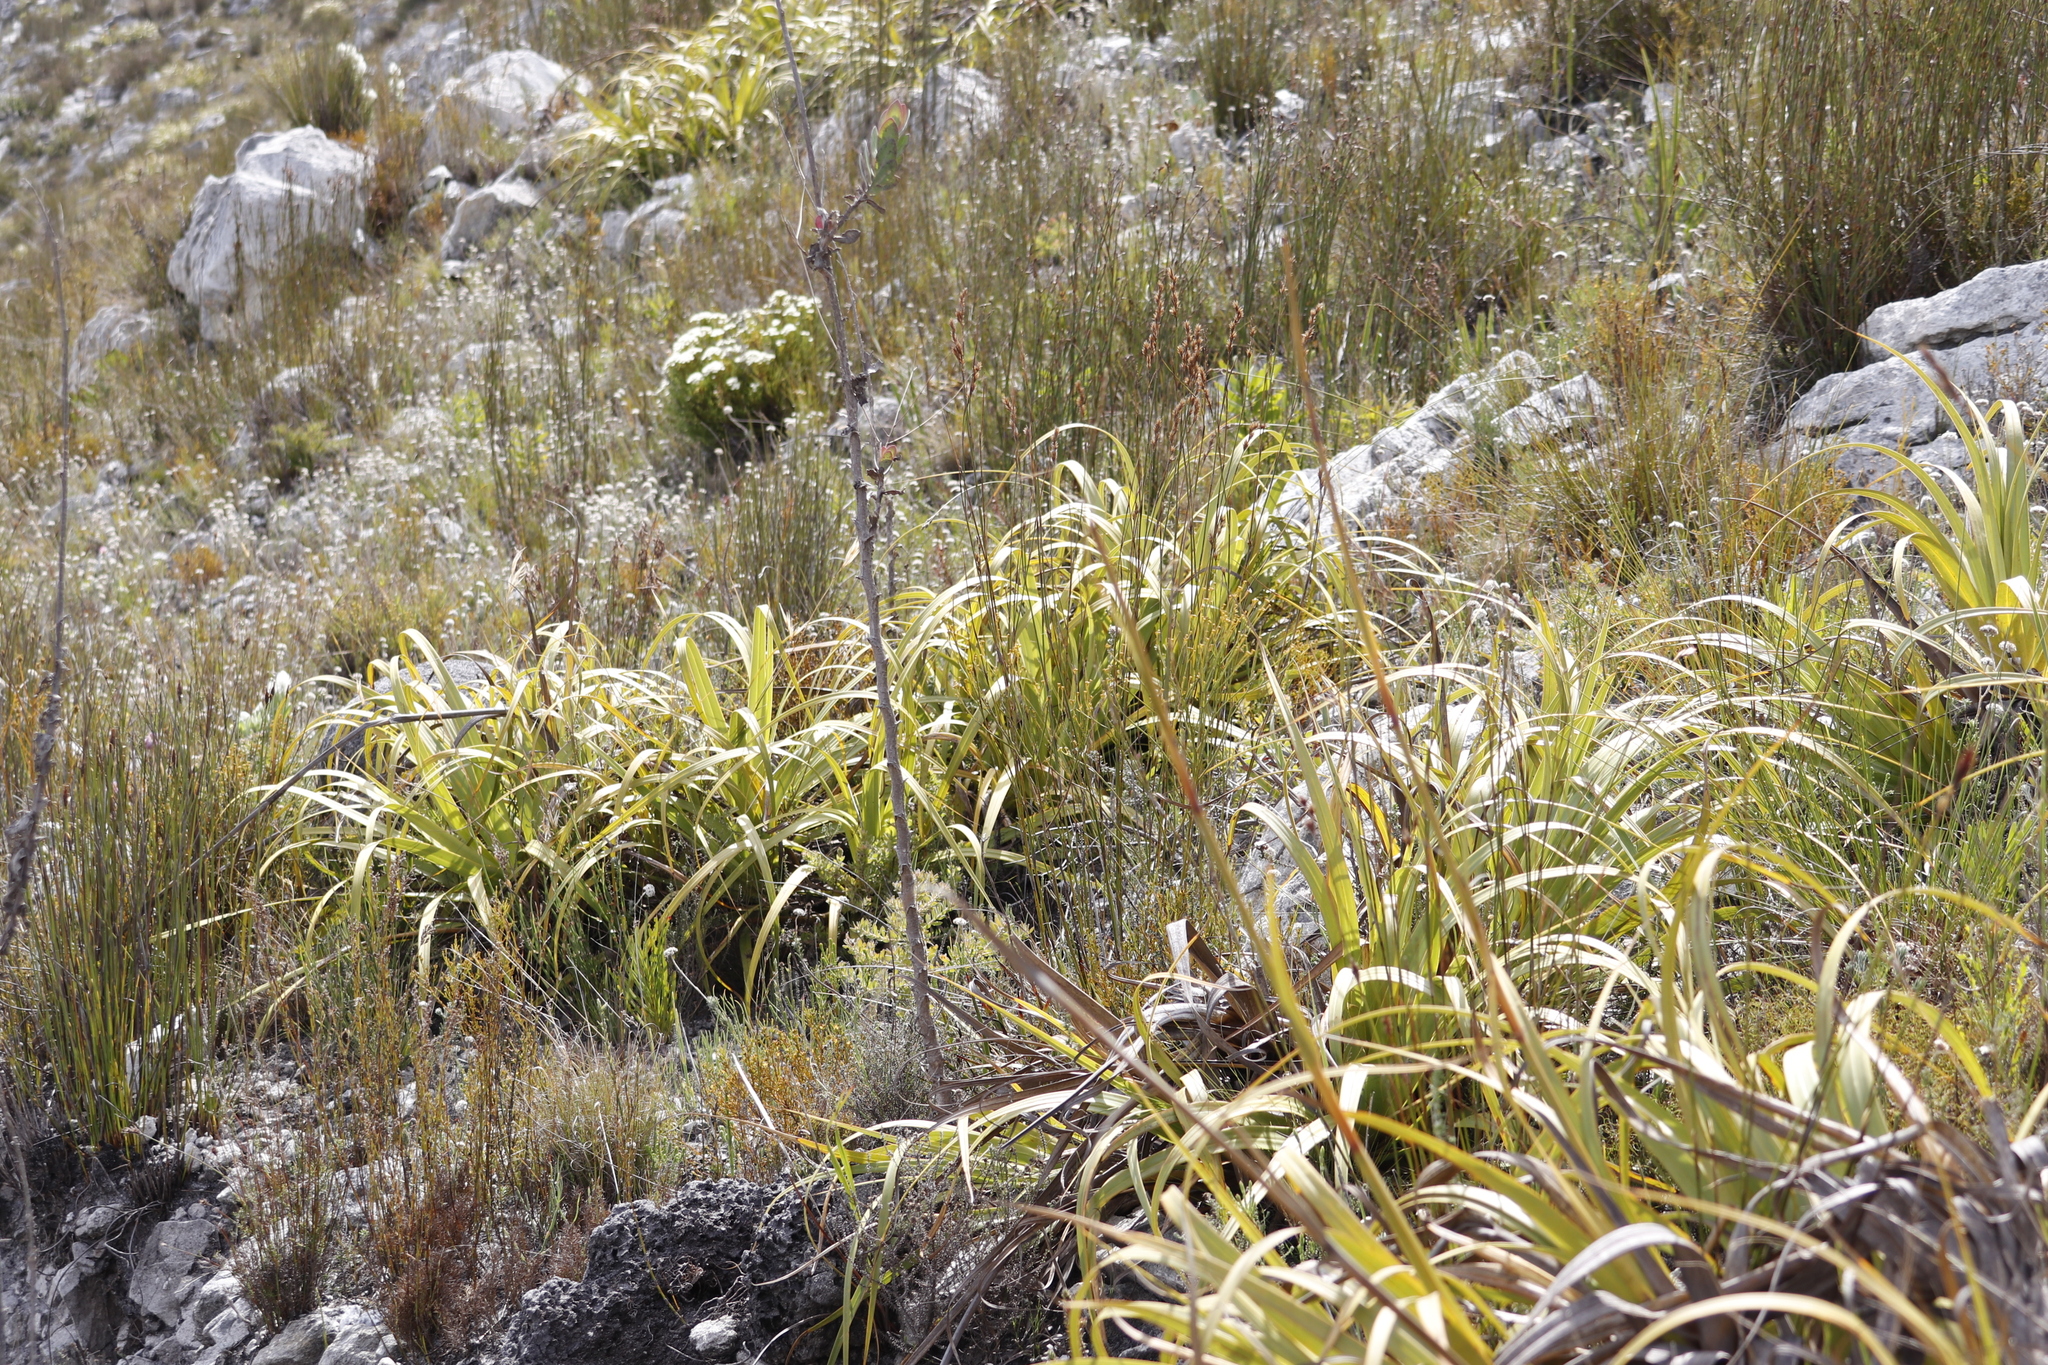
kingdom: Plantae
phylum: Tracheophyta
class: Liliopsida
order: Poales
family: Cyperaceae
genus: Tetraria
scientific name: Tetraria thermalis
